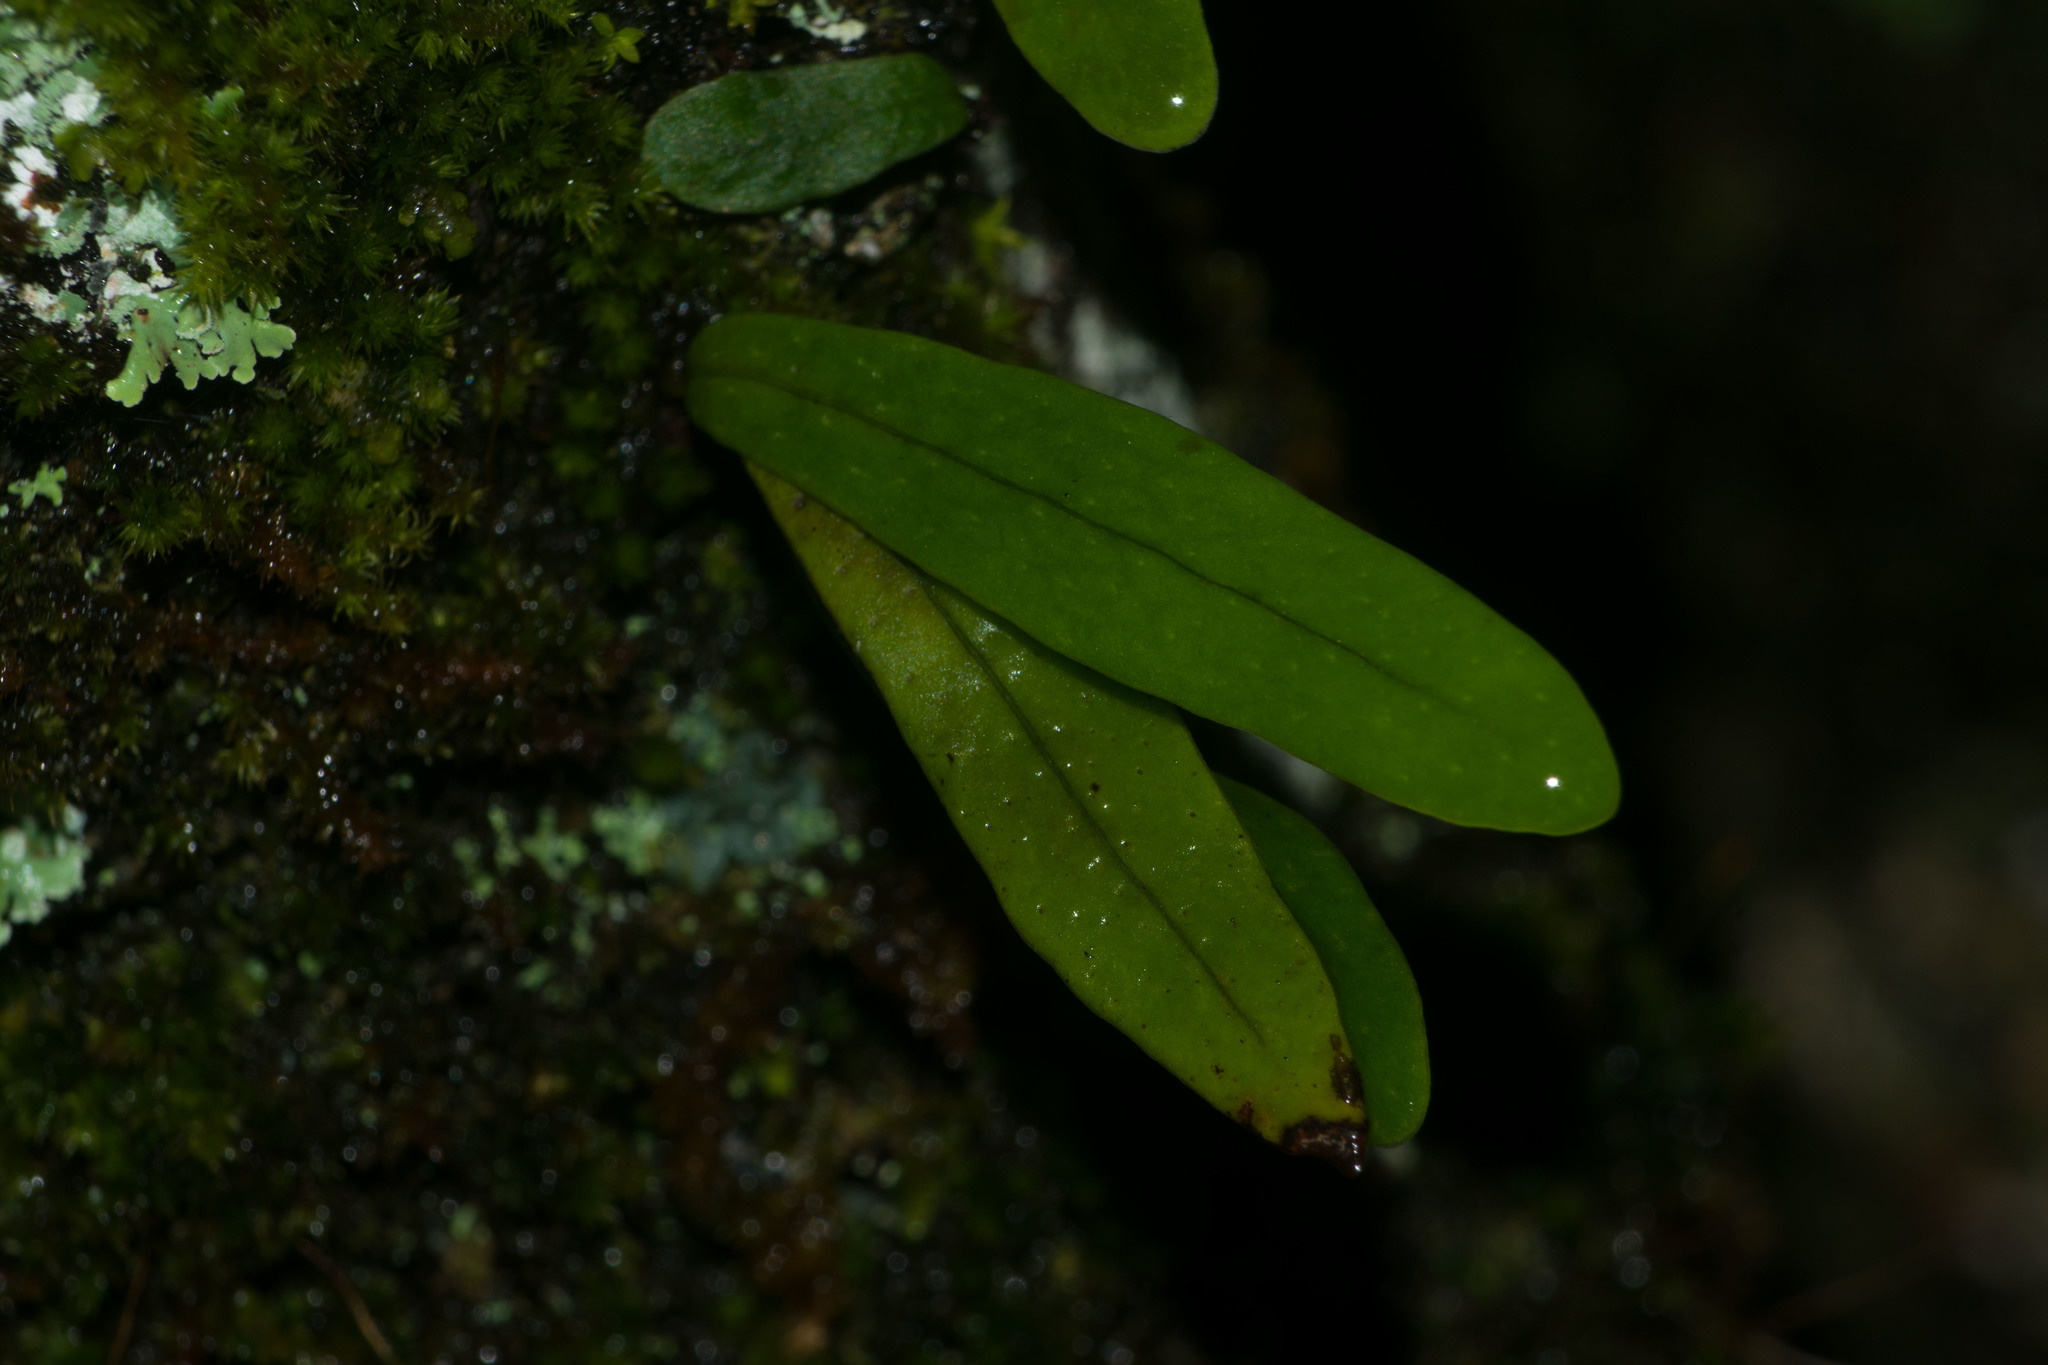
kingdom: Plantae
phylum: Tracheophyta
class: Polypodiopsida
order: Polypodiales
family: Polypodiaceae
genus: Lepisorus
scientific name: Lepisorus thunbergianus
